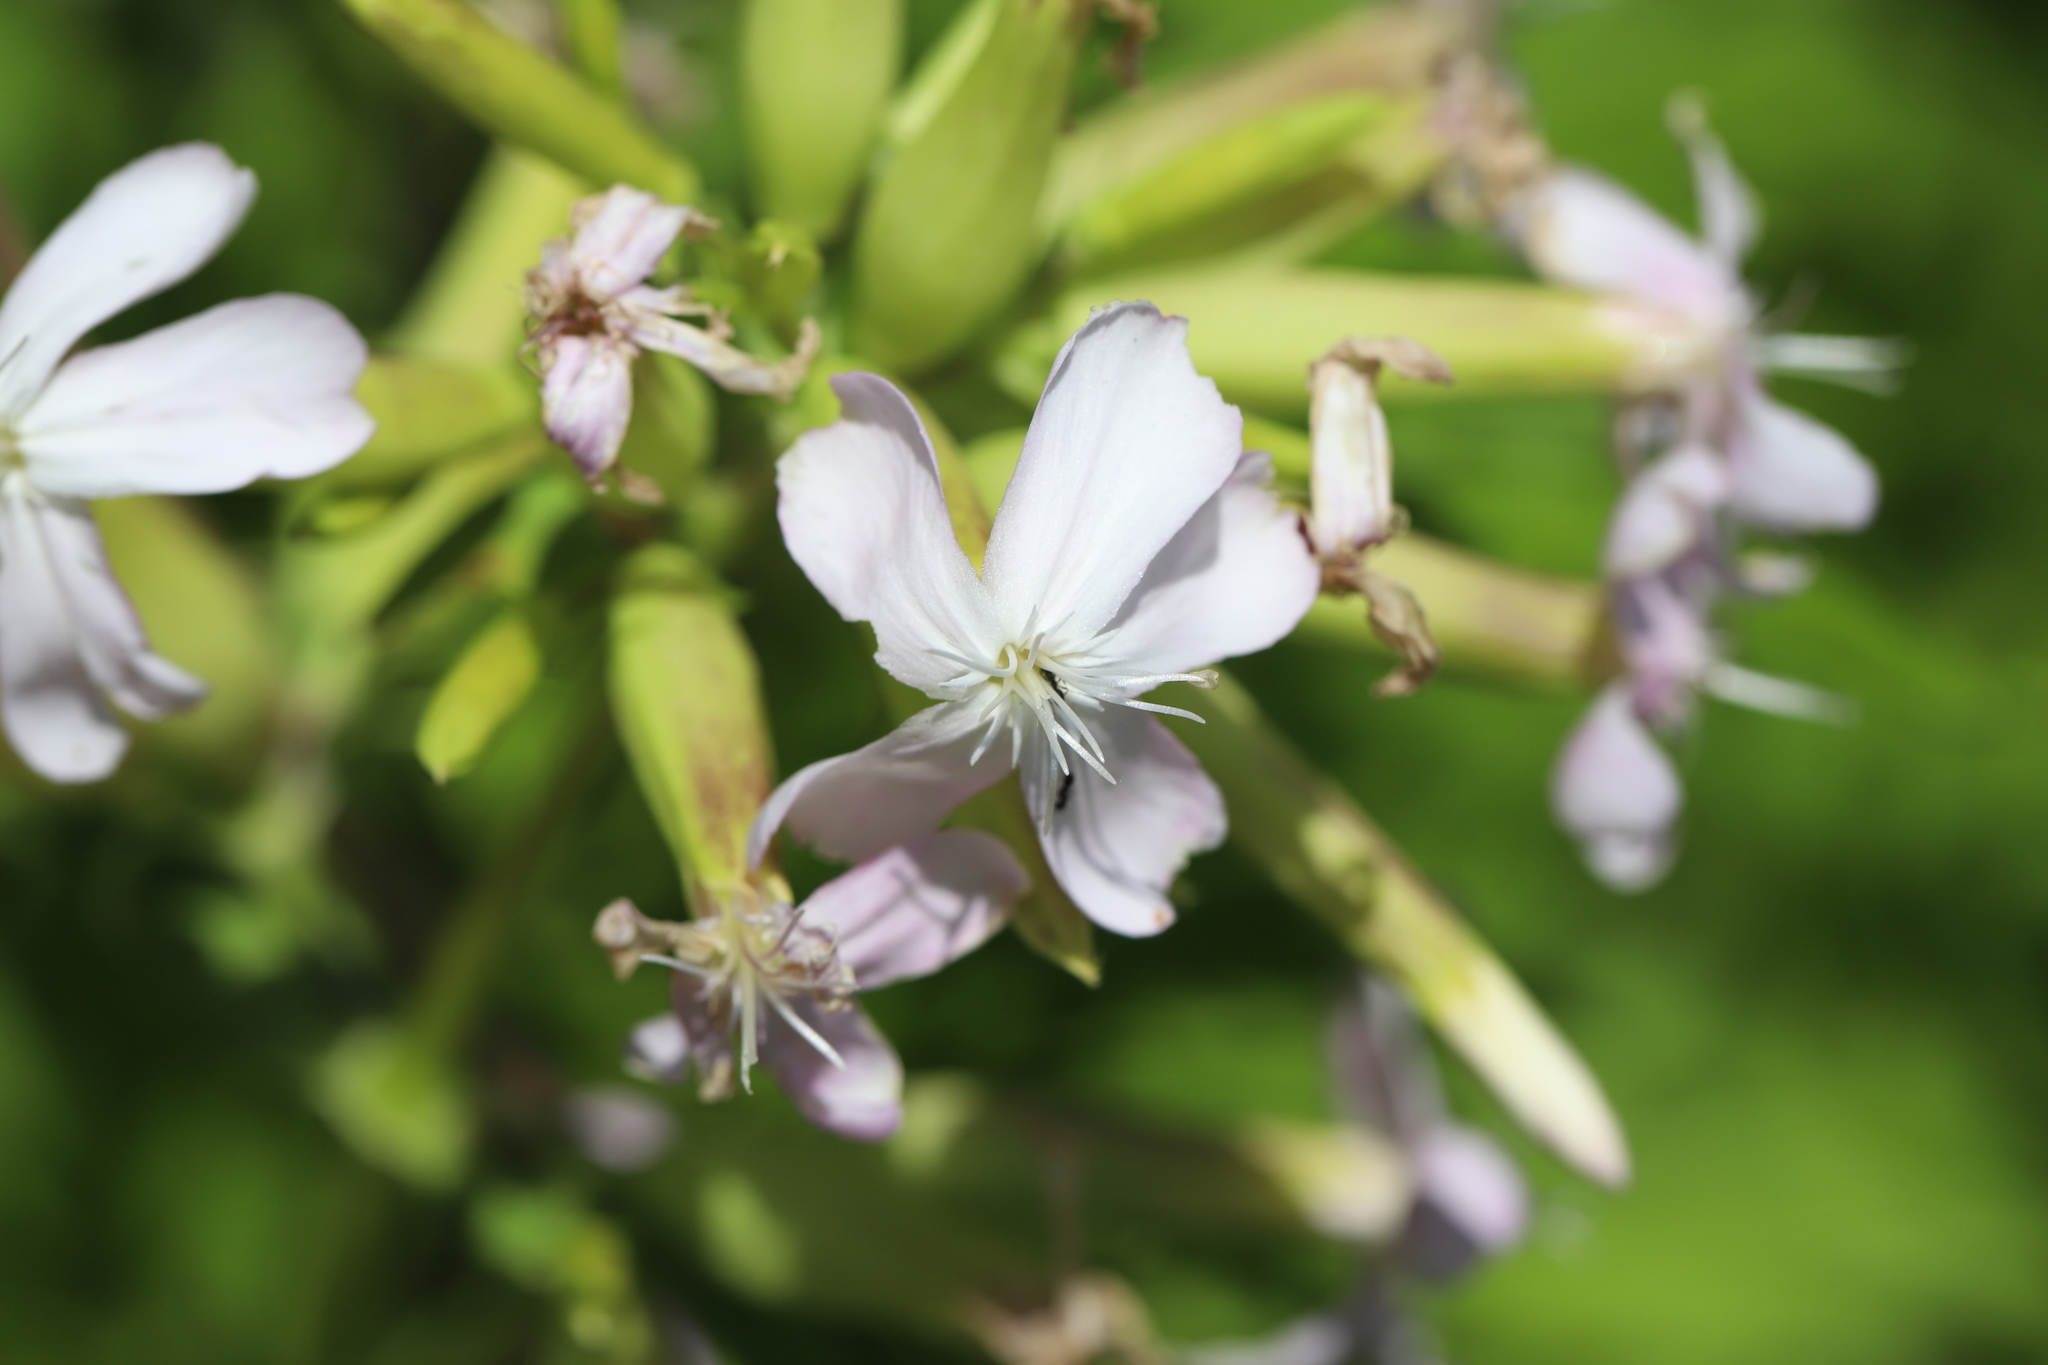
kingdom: Plantae
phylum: Tracheophyta
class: Magnoliopsida
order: Caryophyllales
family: Caryophyllaceae
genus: Saponaria
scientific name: Saponaria officinalis
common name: Soapwort
